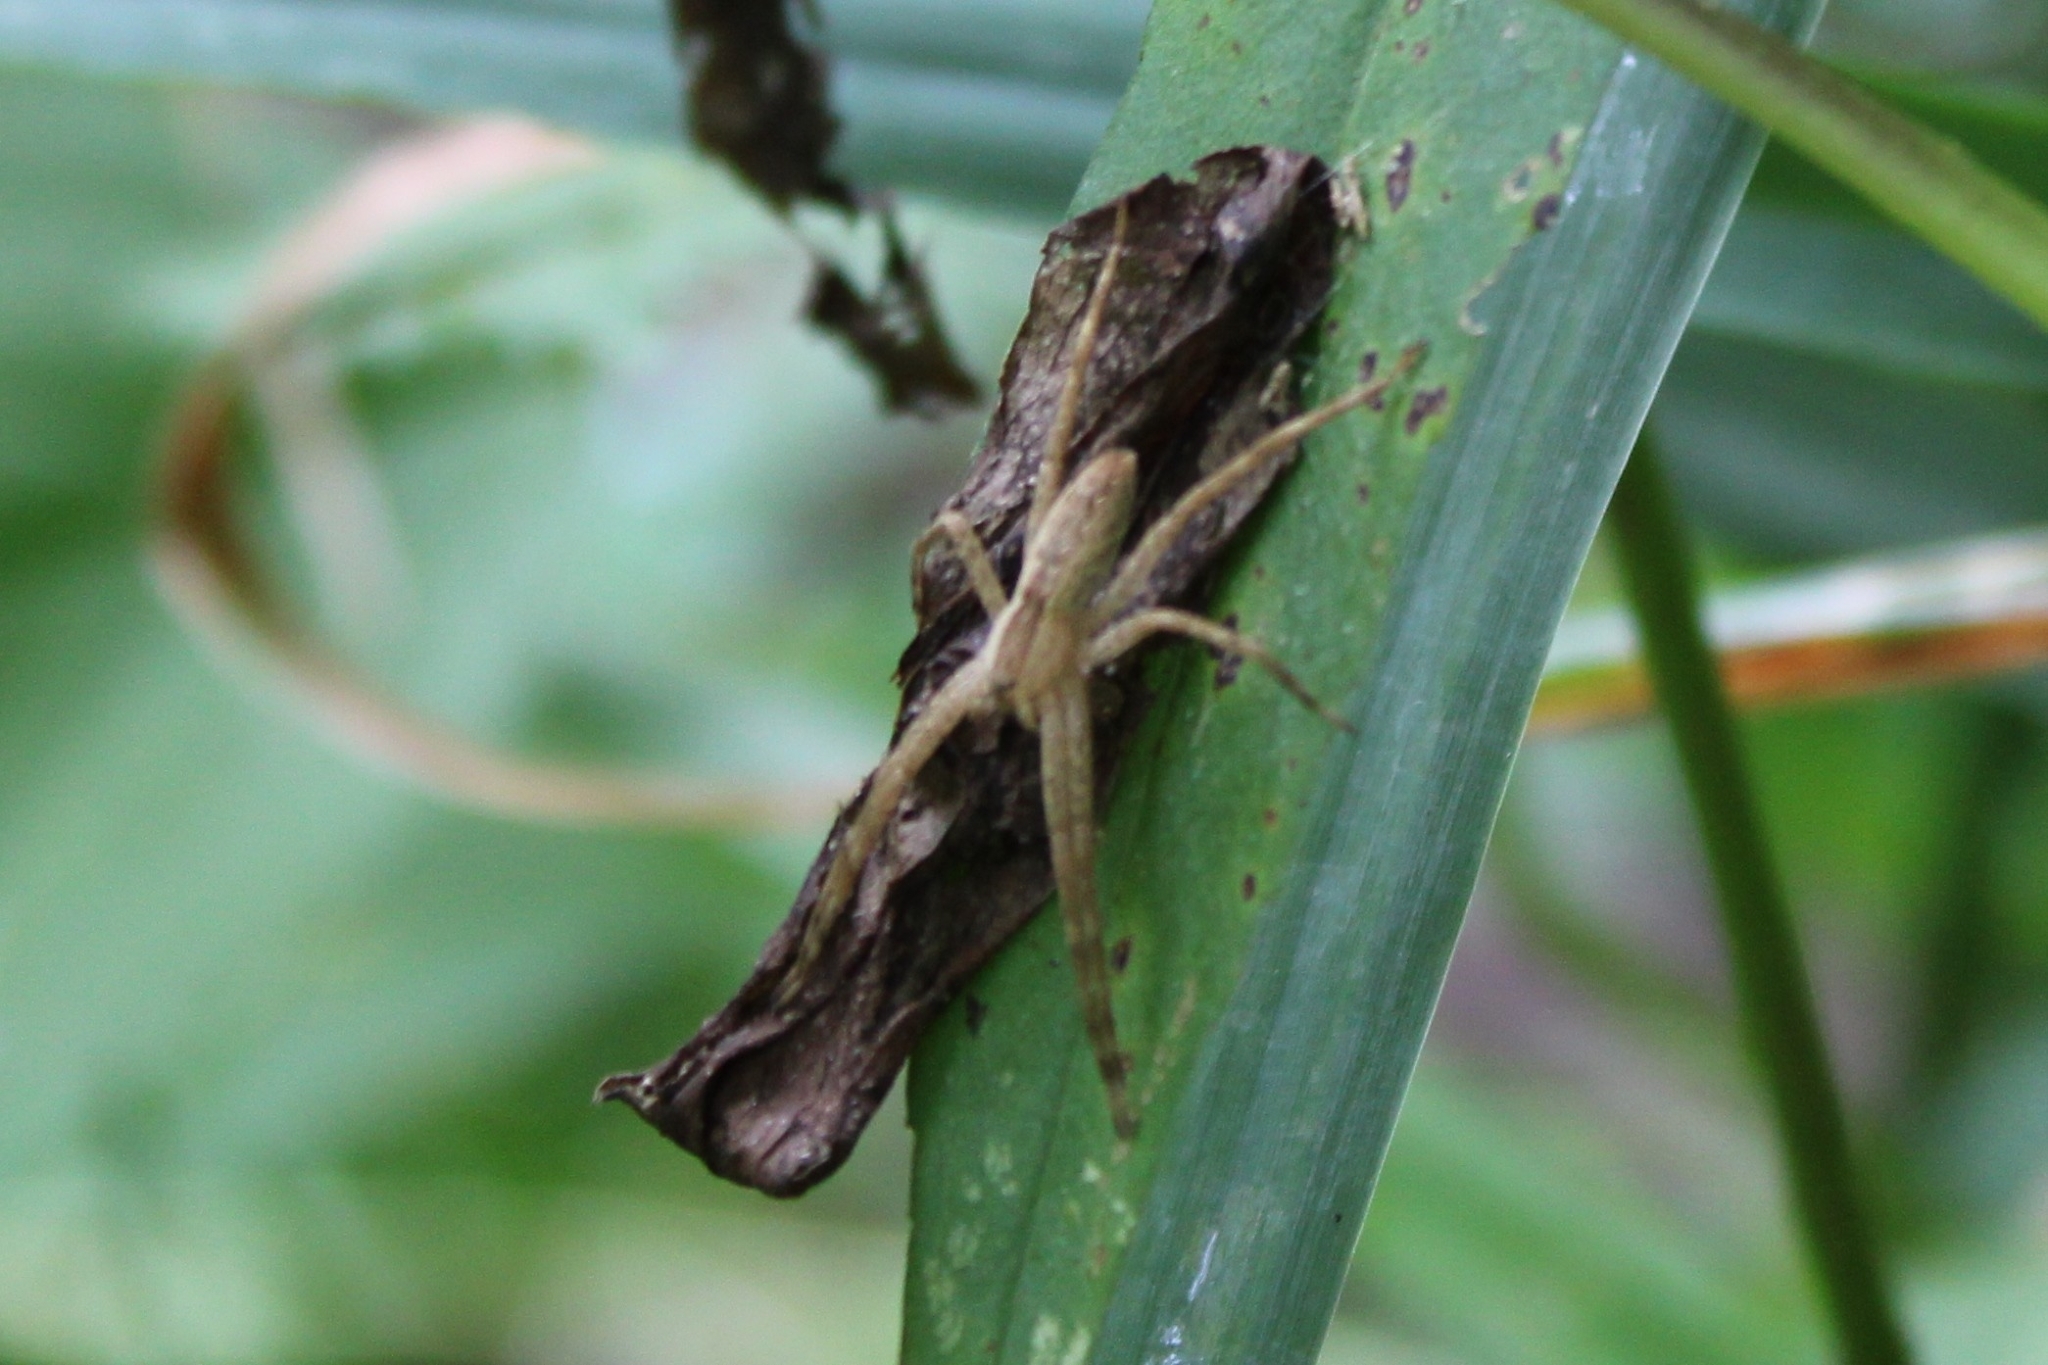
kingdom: Animalia
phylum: Arthropoda
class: Arachnida
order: Araneae
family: Pisauridae
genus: Pisaurina
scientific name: Pisaurina mira
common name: American nursery web spider
